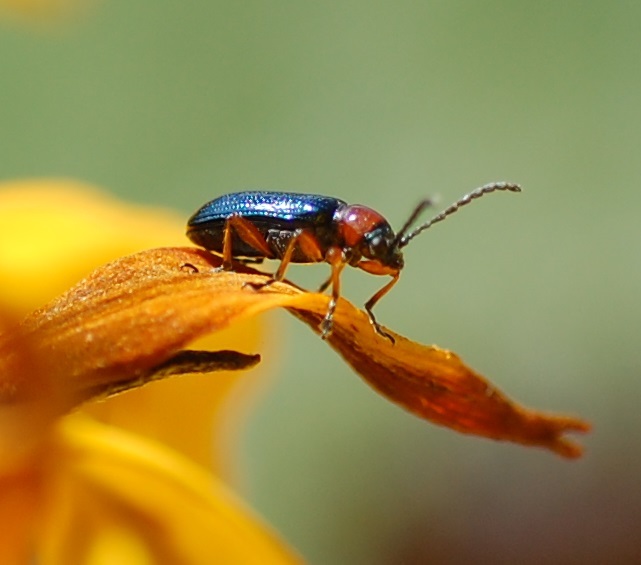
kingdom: Animalia
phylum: Arthropoda
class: Insecta
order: Coleoptera
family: Chrysomelidae
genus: Oulema
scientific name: Oulema melanopus
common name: Cereal leaf beetle
